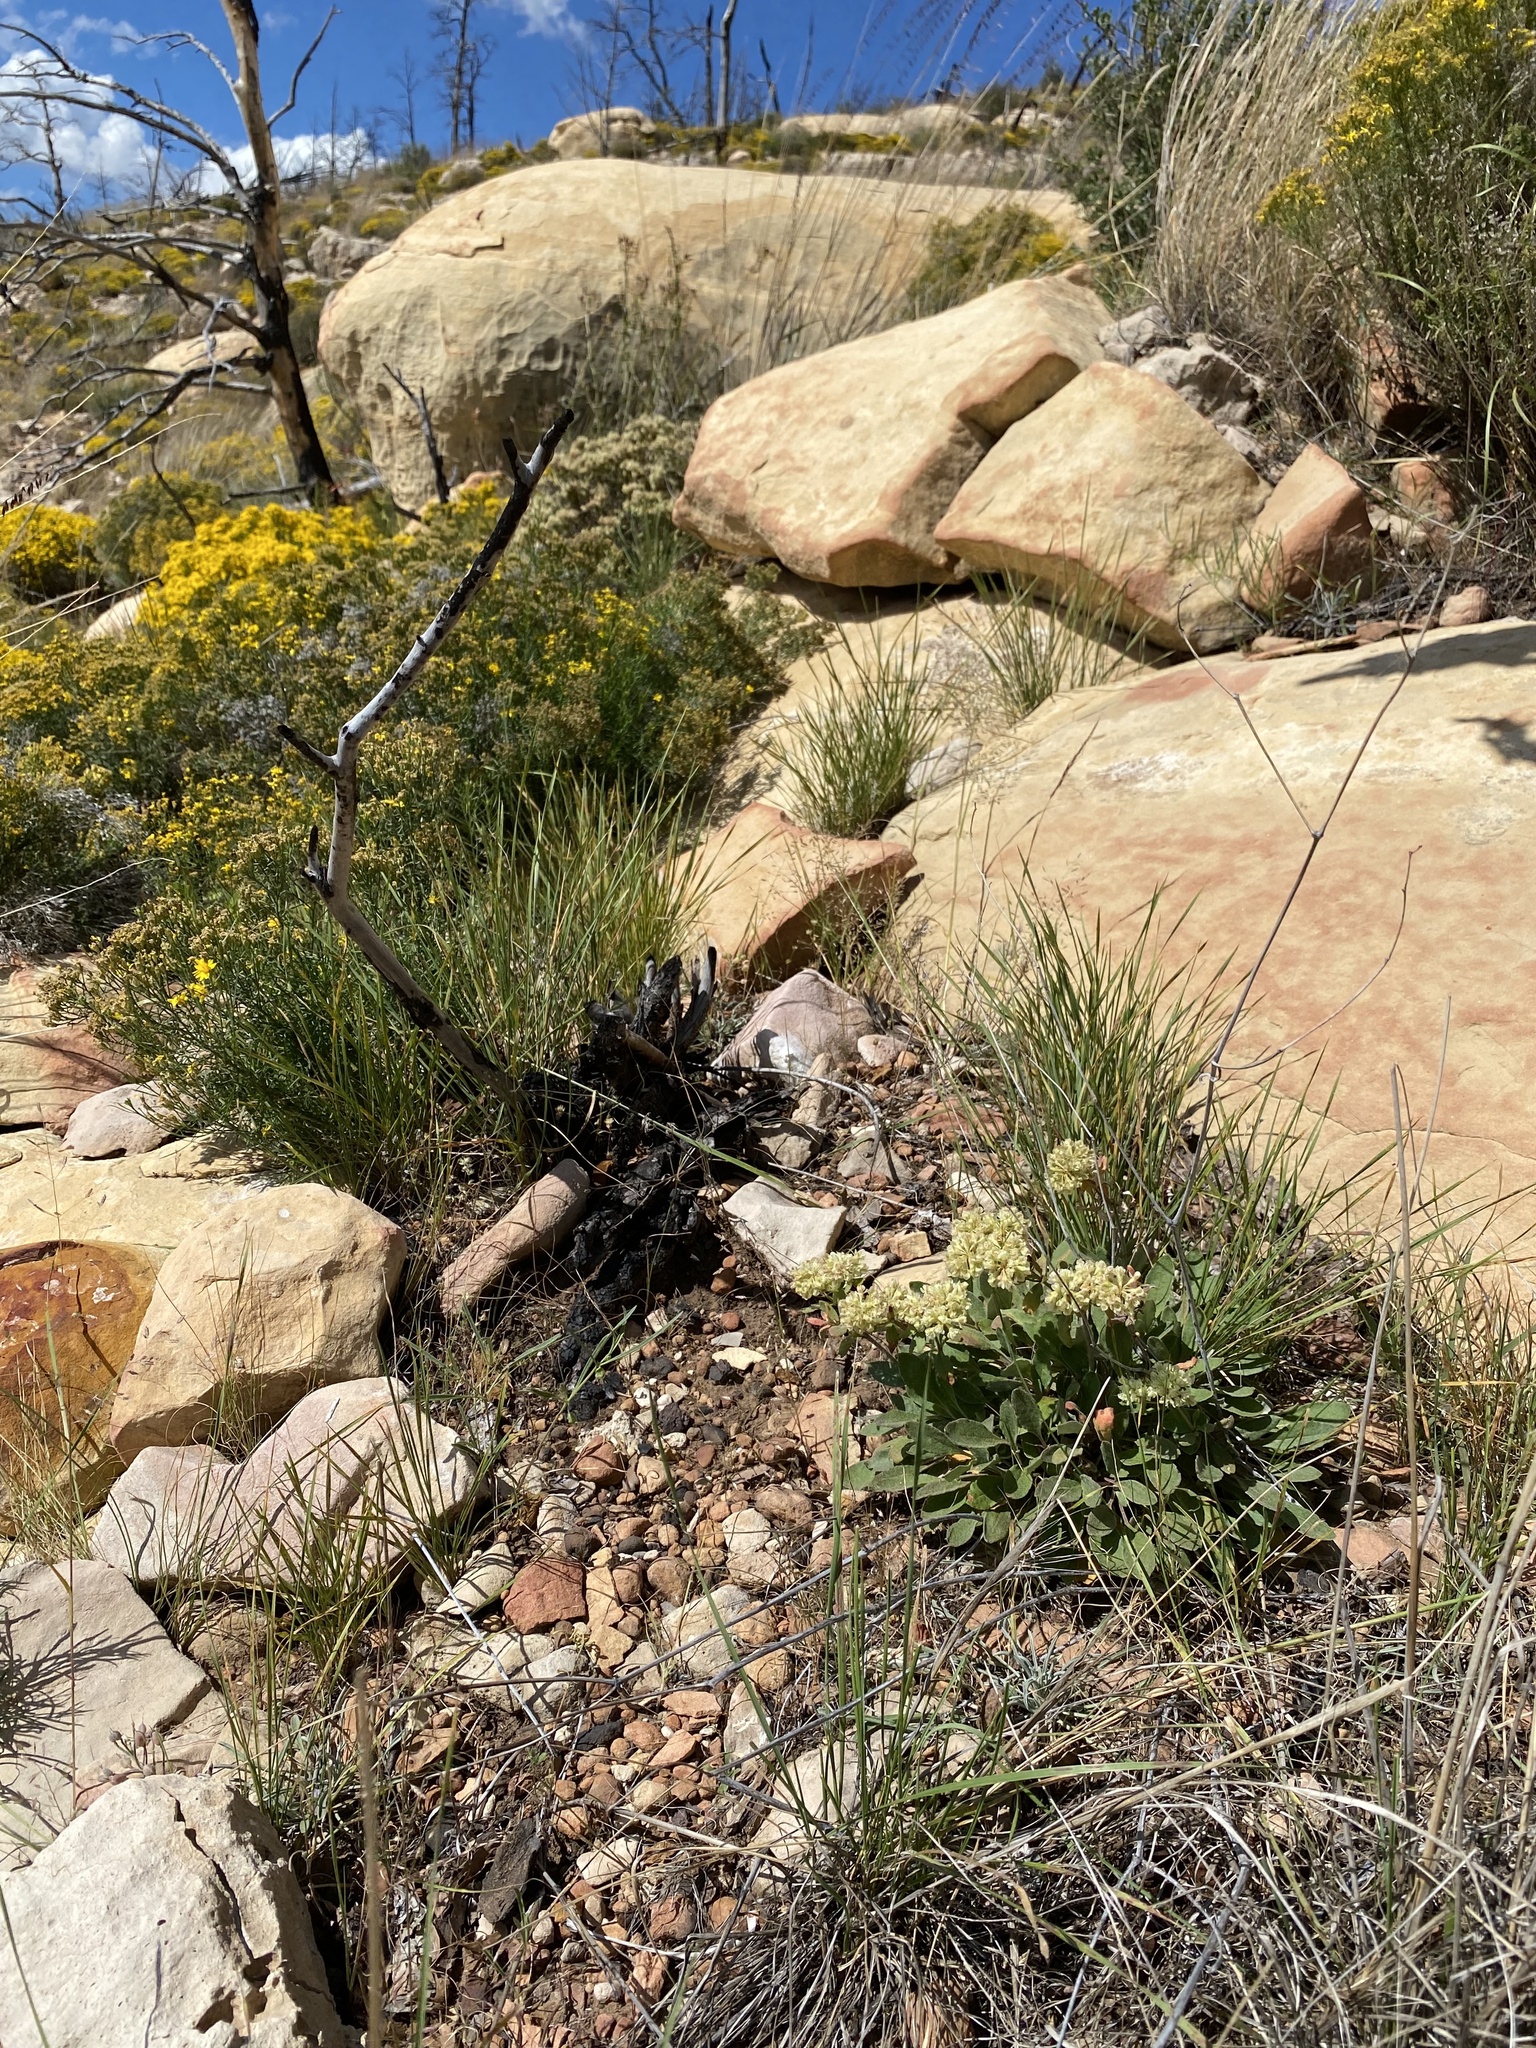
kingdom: Plantae
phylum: Tracheophyta
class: Magnoliopsida
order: Caryophyllales
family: Polygonaceae
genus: Eriogonum
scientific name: Eriogonum jamesii
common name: Antelope-sage
